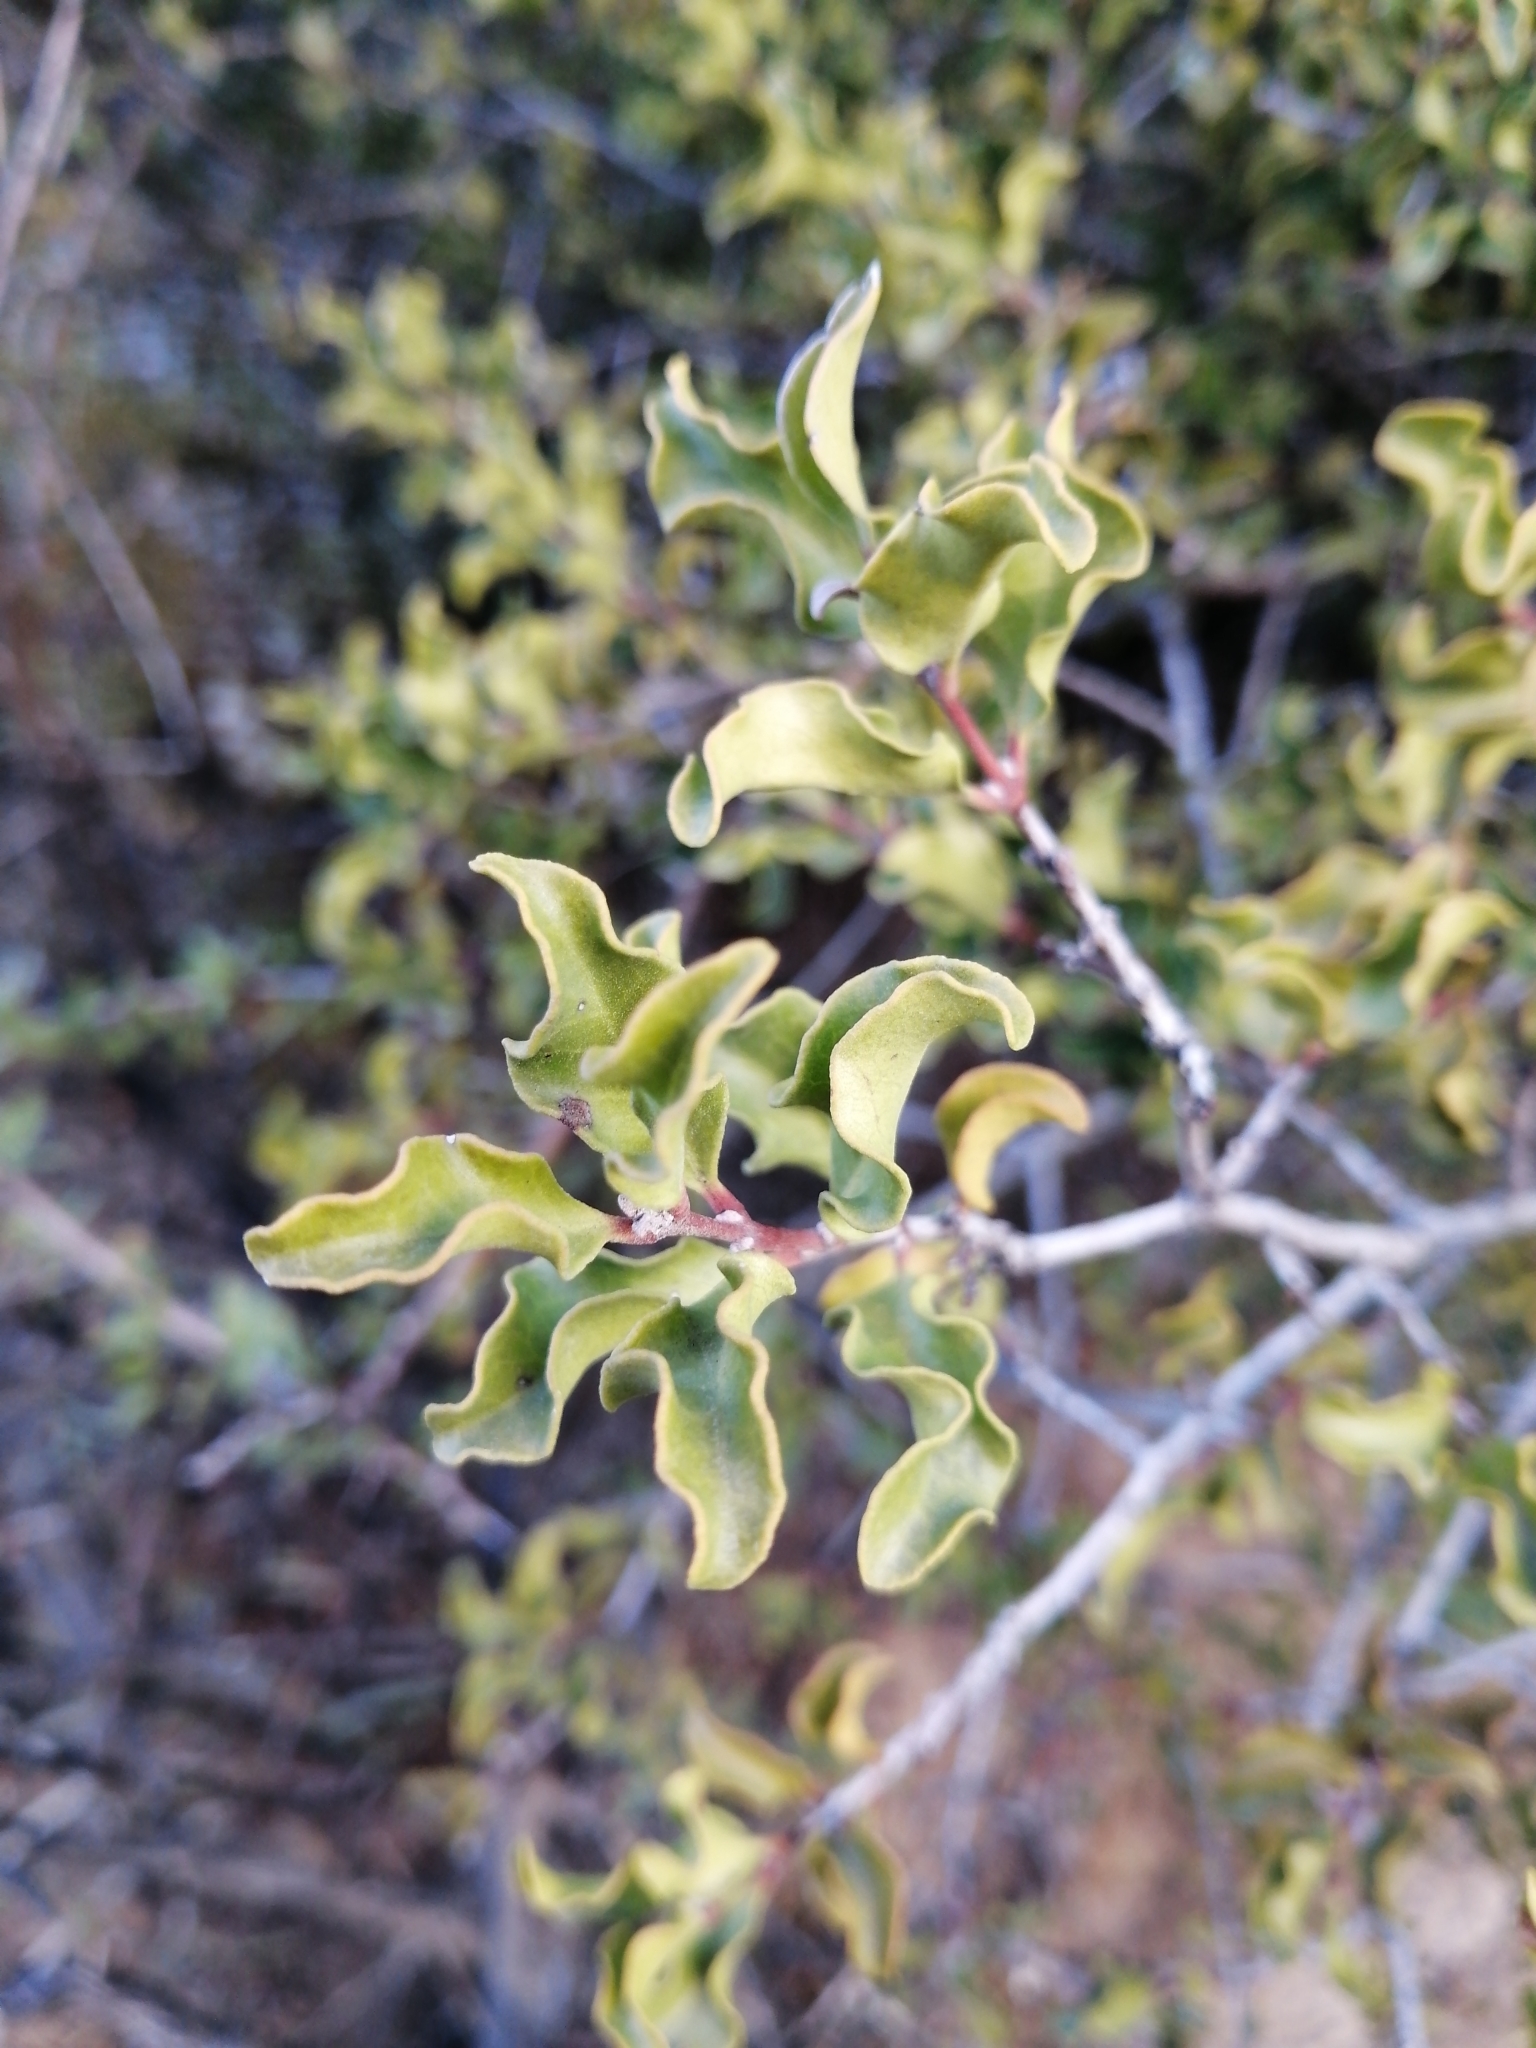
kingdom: Plantae
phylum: Tracheophyta
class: Magnoliopsida
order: Ericales
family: Ebenaceae
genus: Euclea
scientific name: Euclea undulata
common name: Small-leaved guarri
